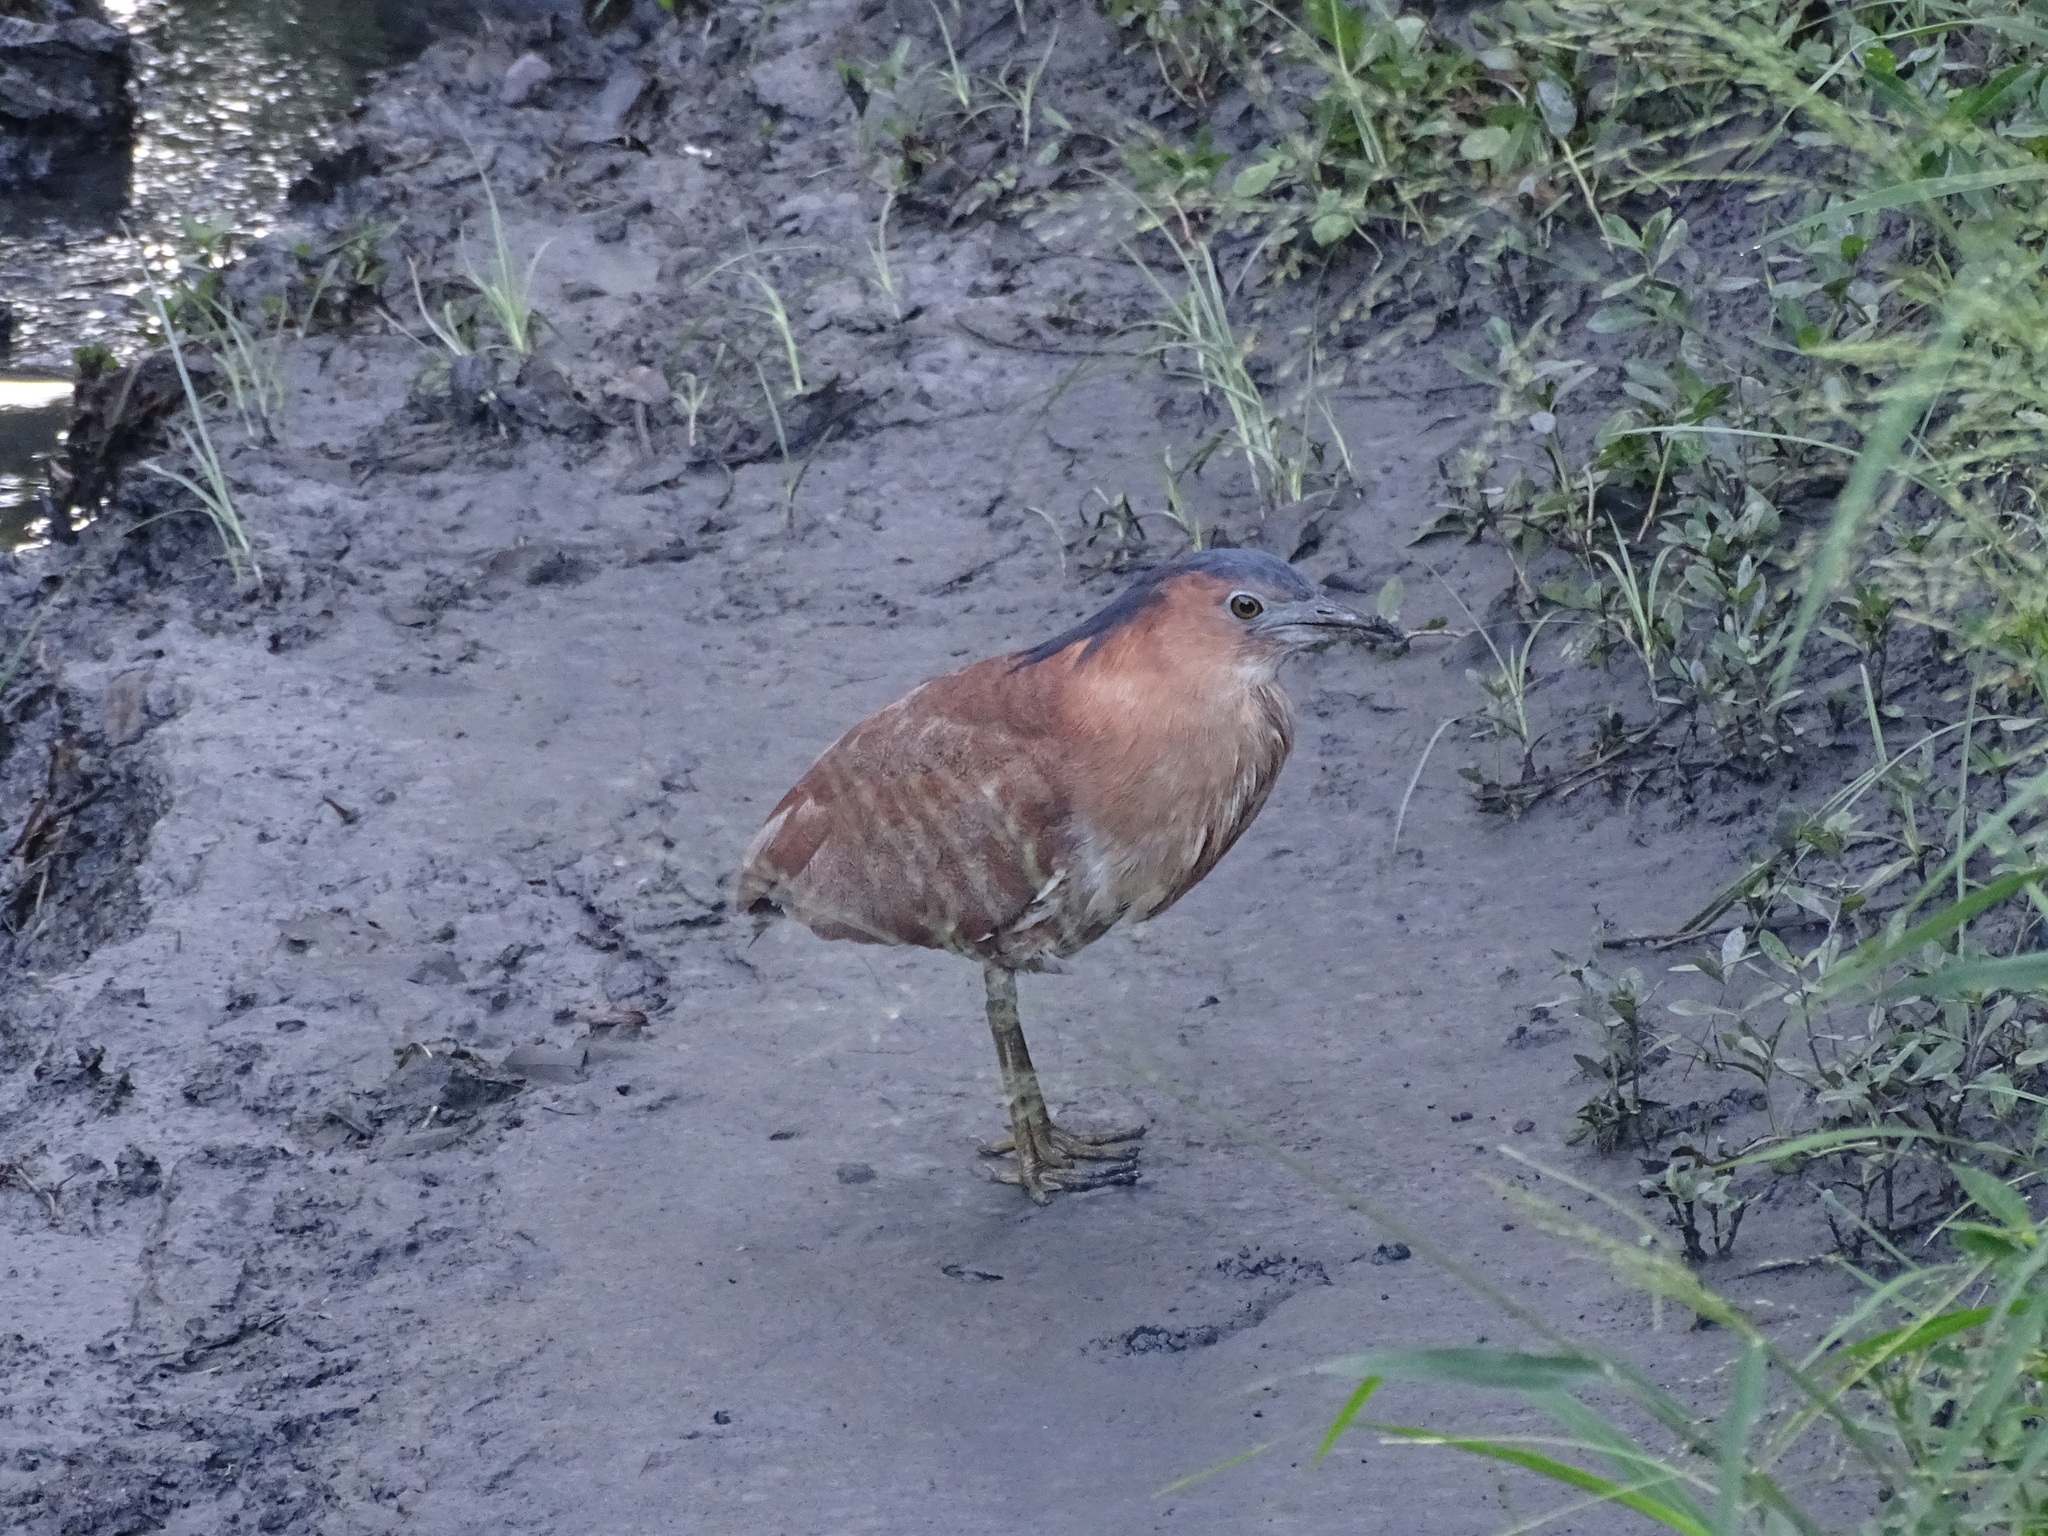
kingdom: Animalia
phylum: Chordata
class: Aves
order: Pelecaniformes
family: Ardeidae
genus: Gorsachius
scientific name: Gorsachius melanolophus
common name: Malayan night heron
